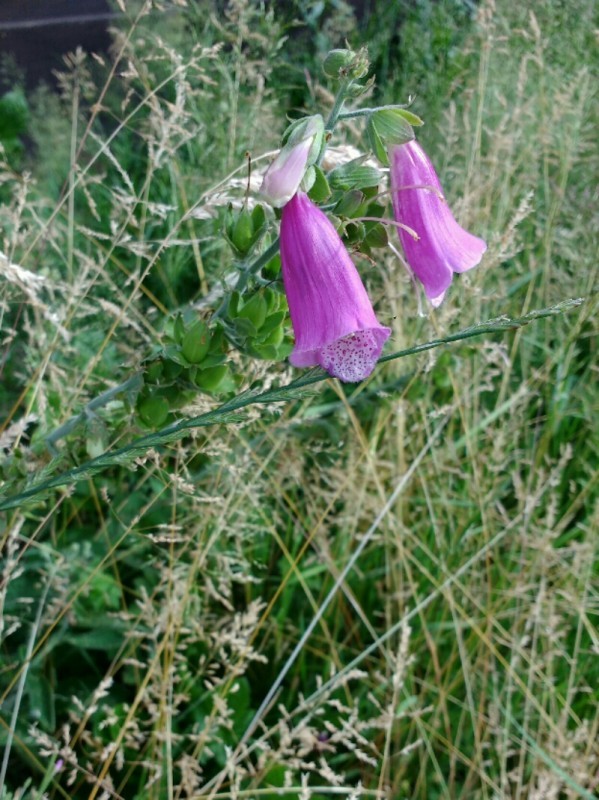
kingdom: Plantae
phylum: Tracheophyta
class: Magnoliopsida
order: Lamiales
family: Plantaginaceae
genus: Digitalis
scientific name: Digitalis purpurea
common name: Foxglove
